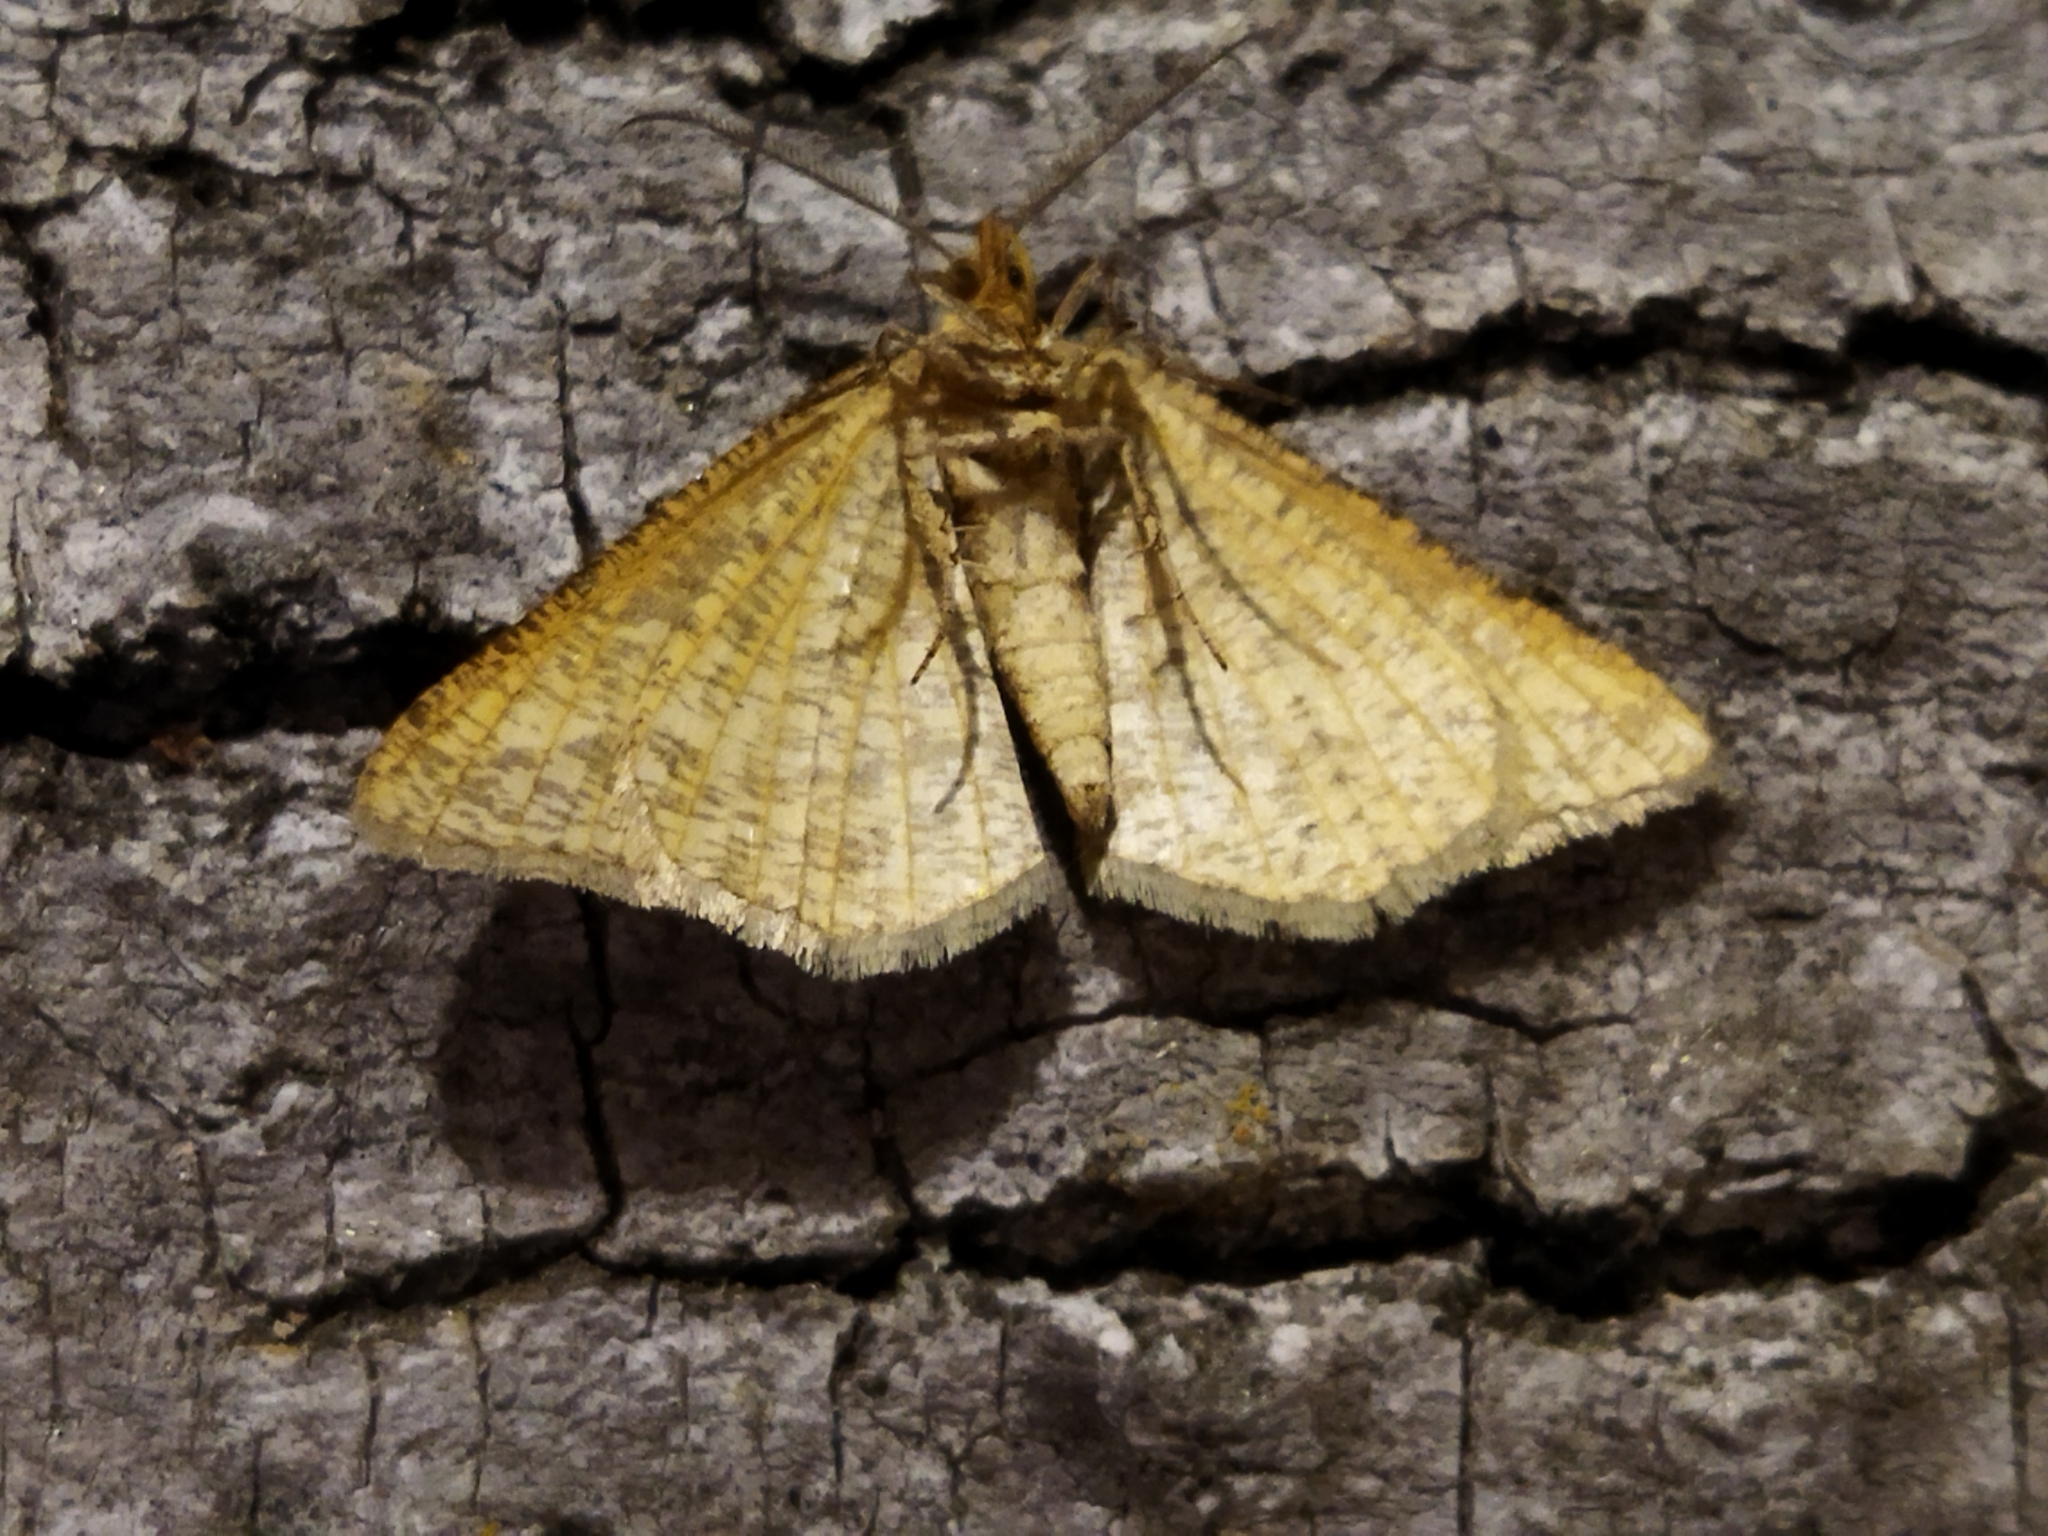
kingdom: Animalia
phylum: Arthropoda
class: Insecta
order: Lepidoptera
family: Geometridae
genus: Tephrina
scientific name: Tephrina arenacearia
